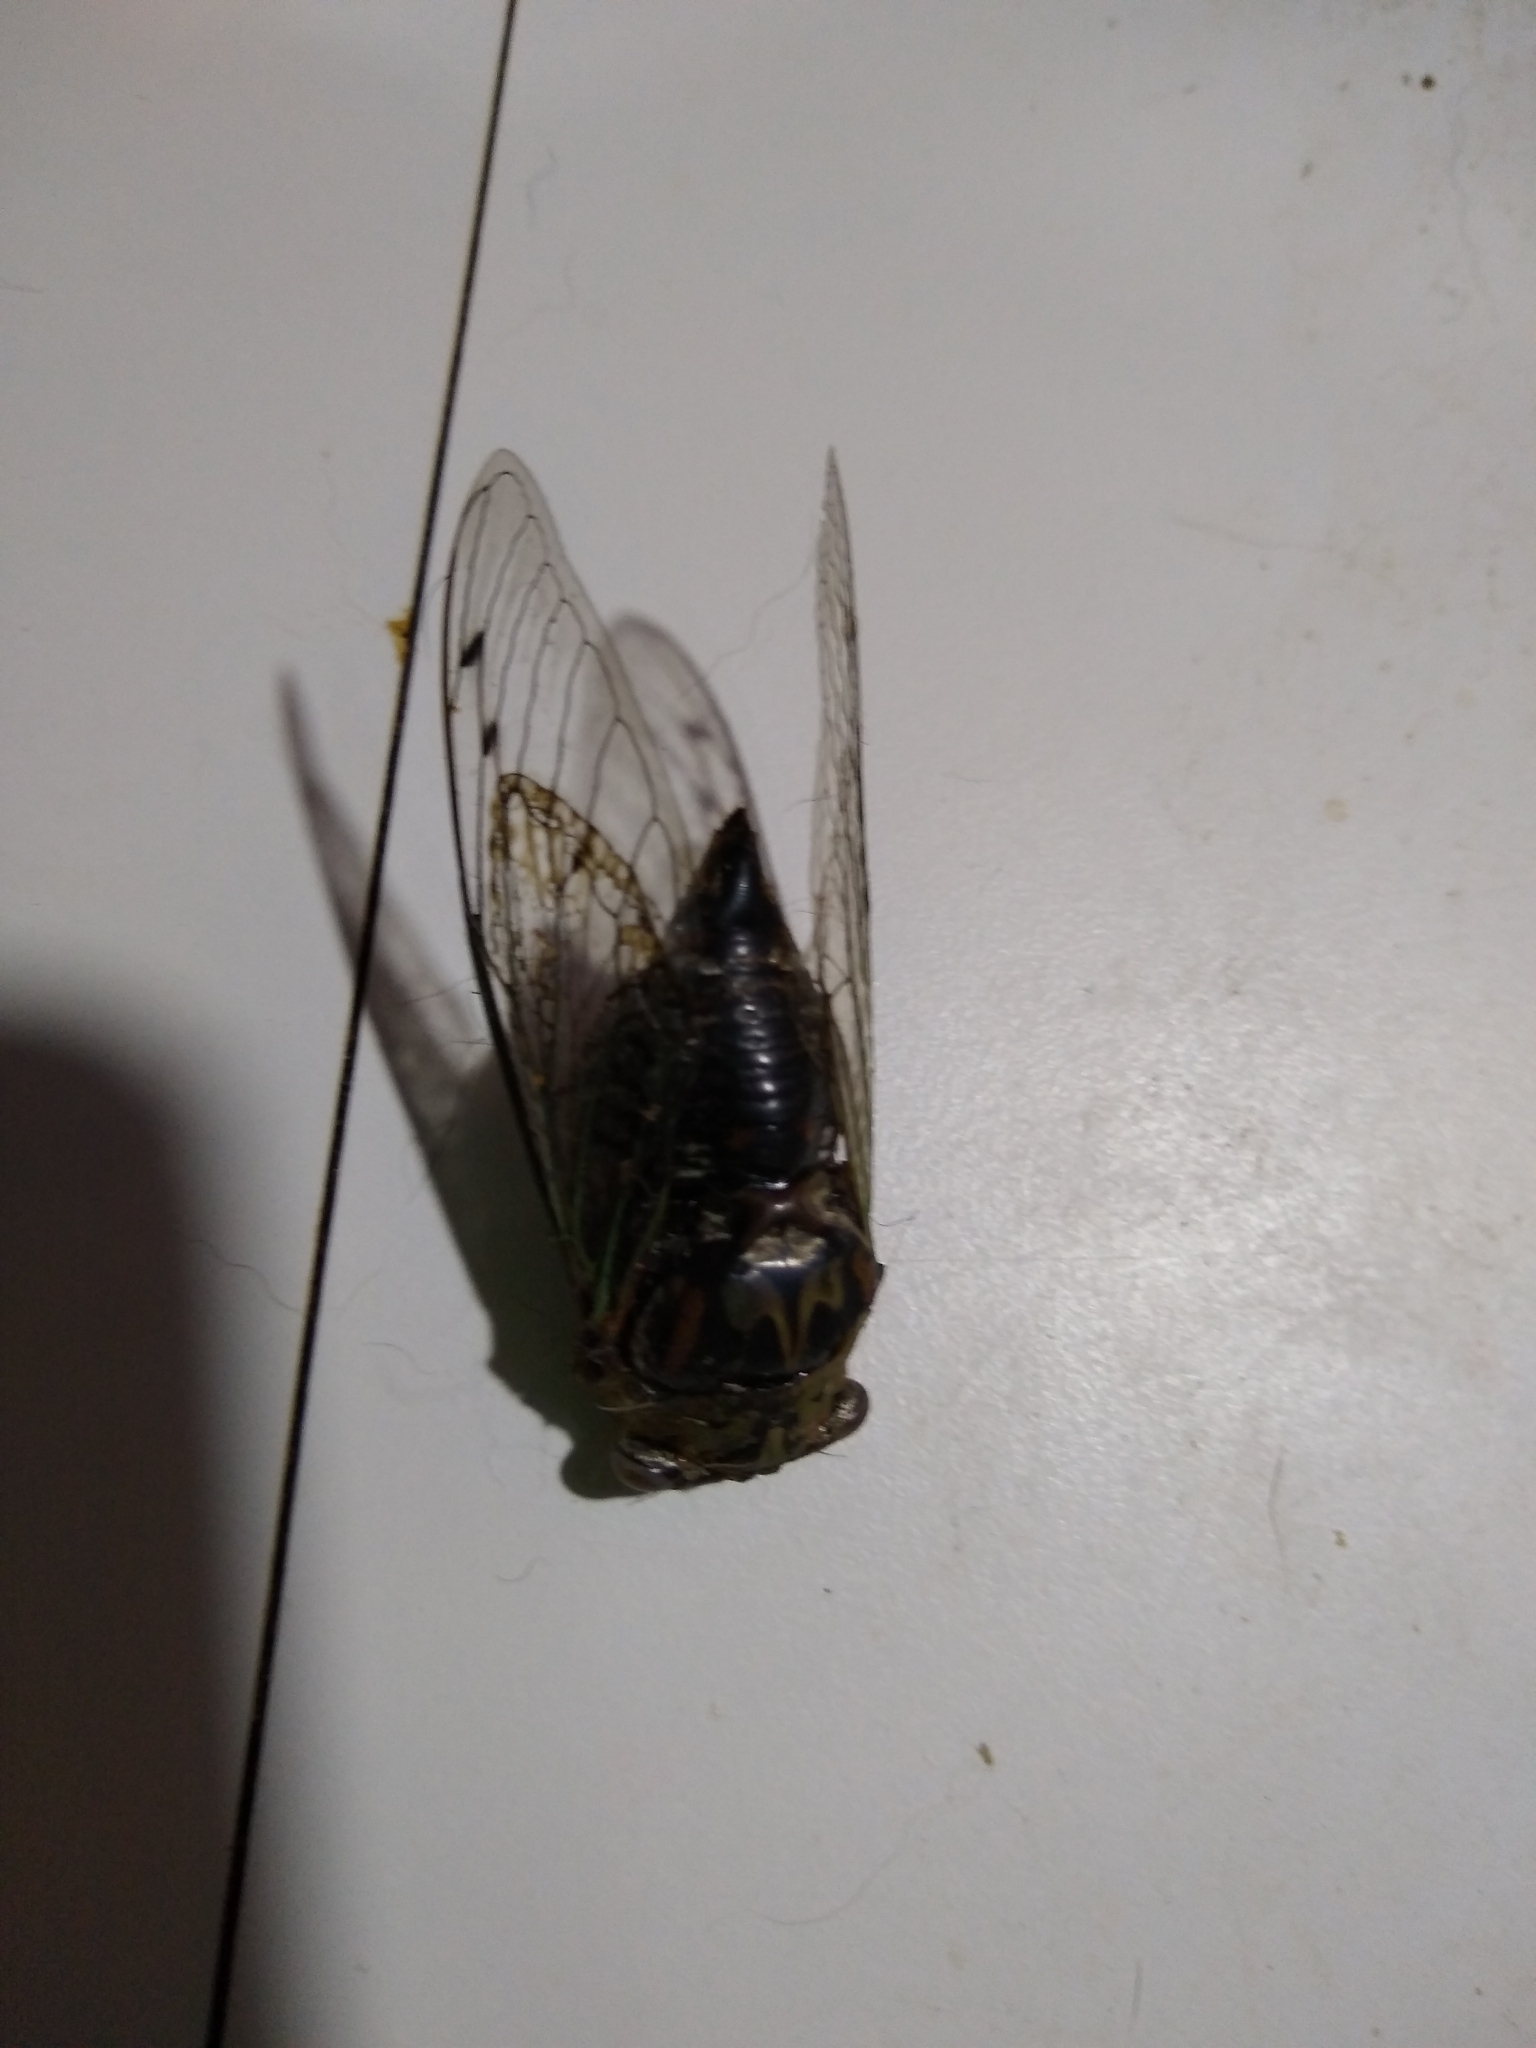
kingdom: Animalia
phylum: Arthropoda
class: Insecta
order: Hemiptera
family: Cicadidae
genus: Megatibicen
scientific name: Megatibicen resh
